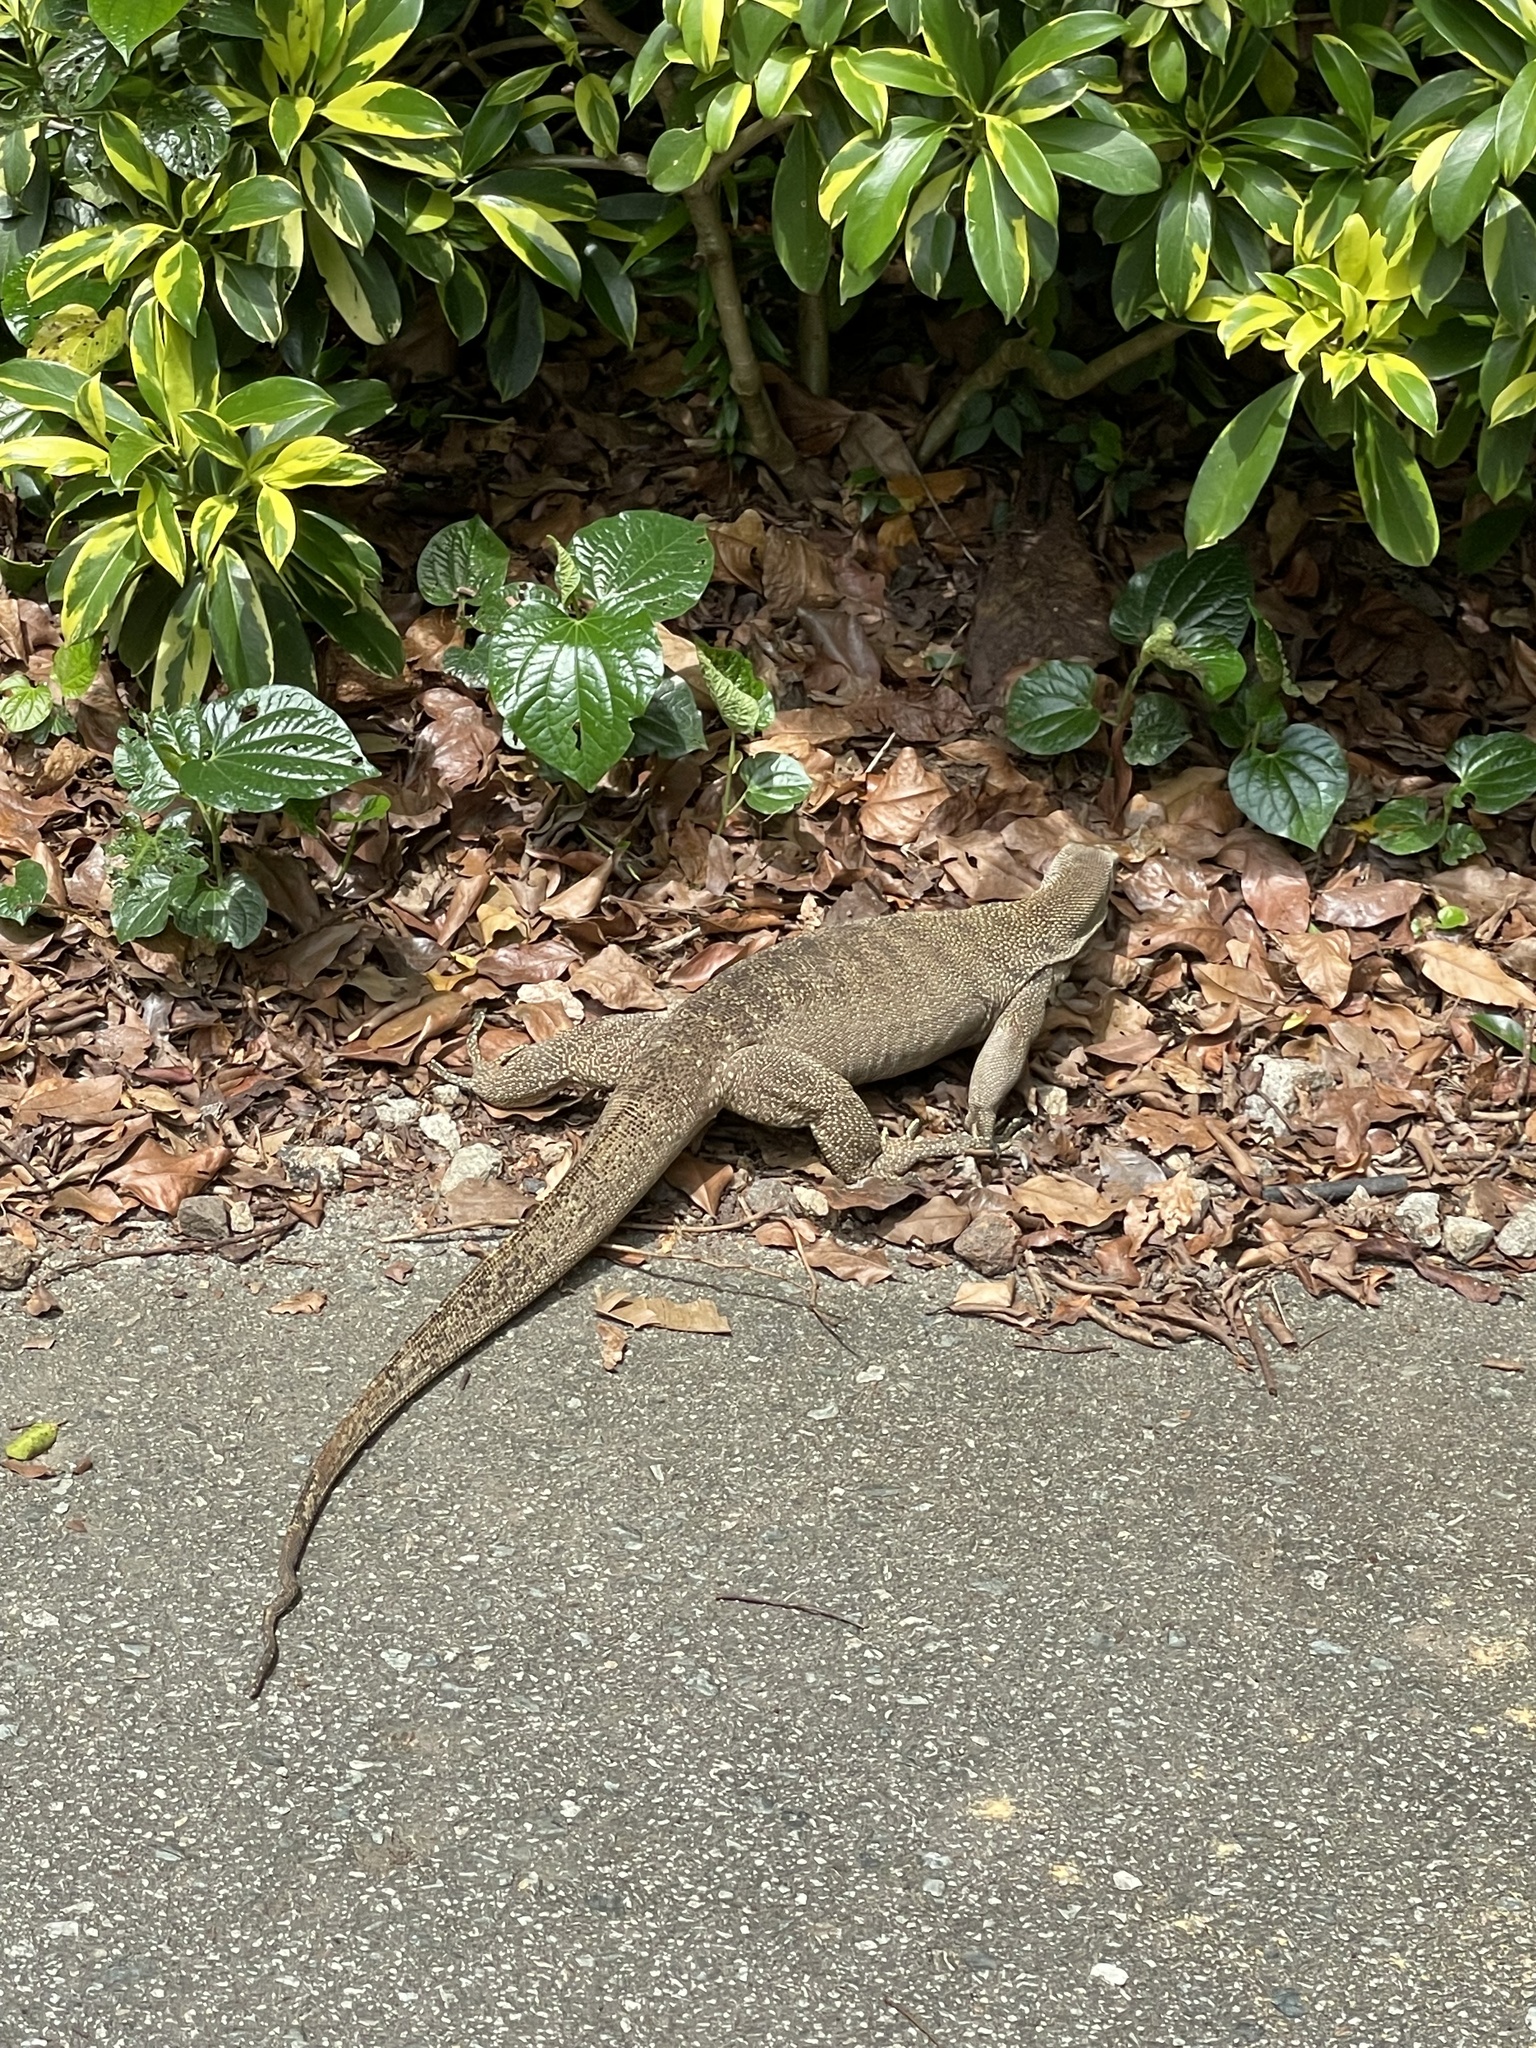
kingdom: Animalia
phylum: Chordata
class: Squamata
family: Varanidae
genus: Varanus
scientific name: Varanus nebulosus
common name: Clouded monitor
